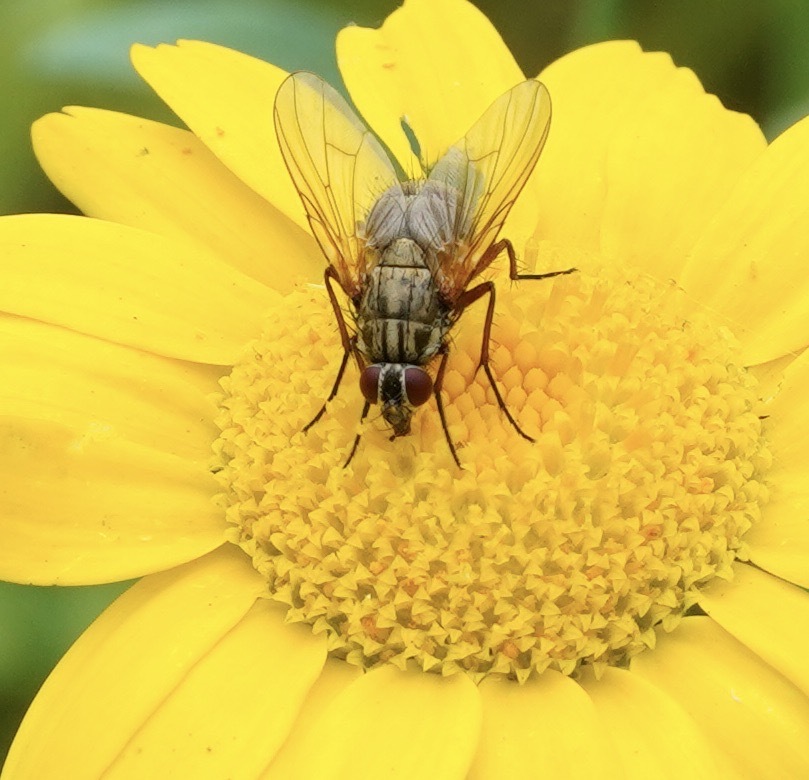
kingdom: Animalia
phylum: Arthropoda
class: Insecta
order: Diptera
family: Muscidae
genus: Phaonia
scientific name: Phaonia angelicae
